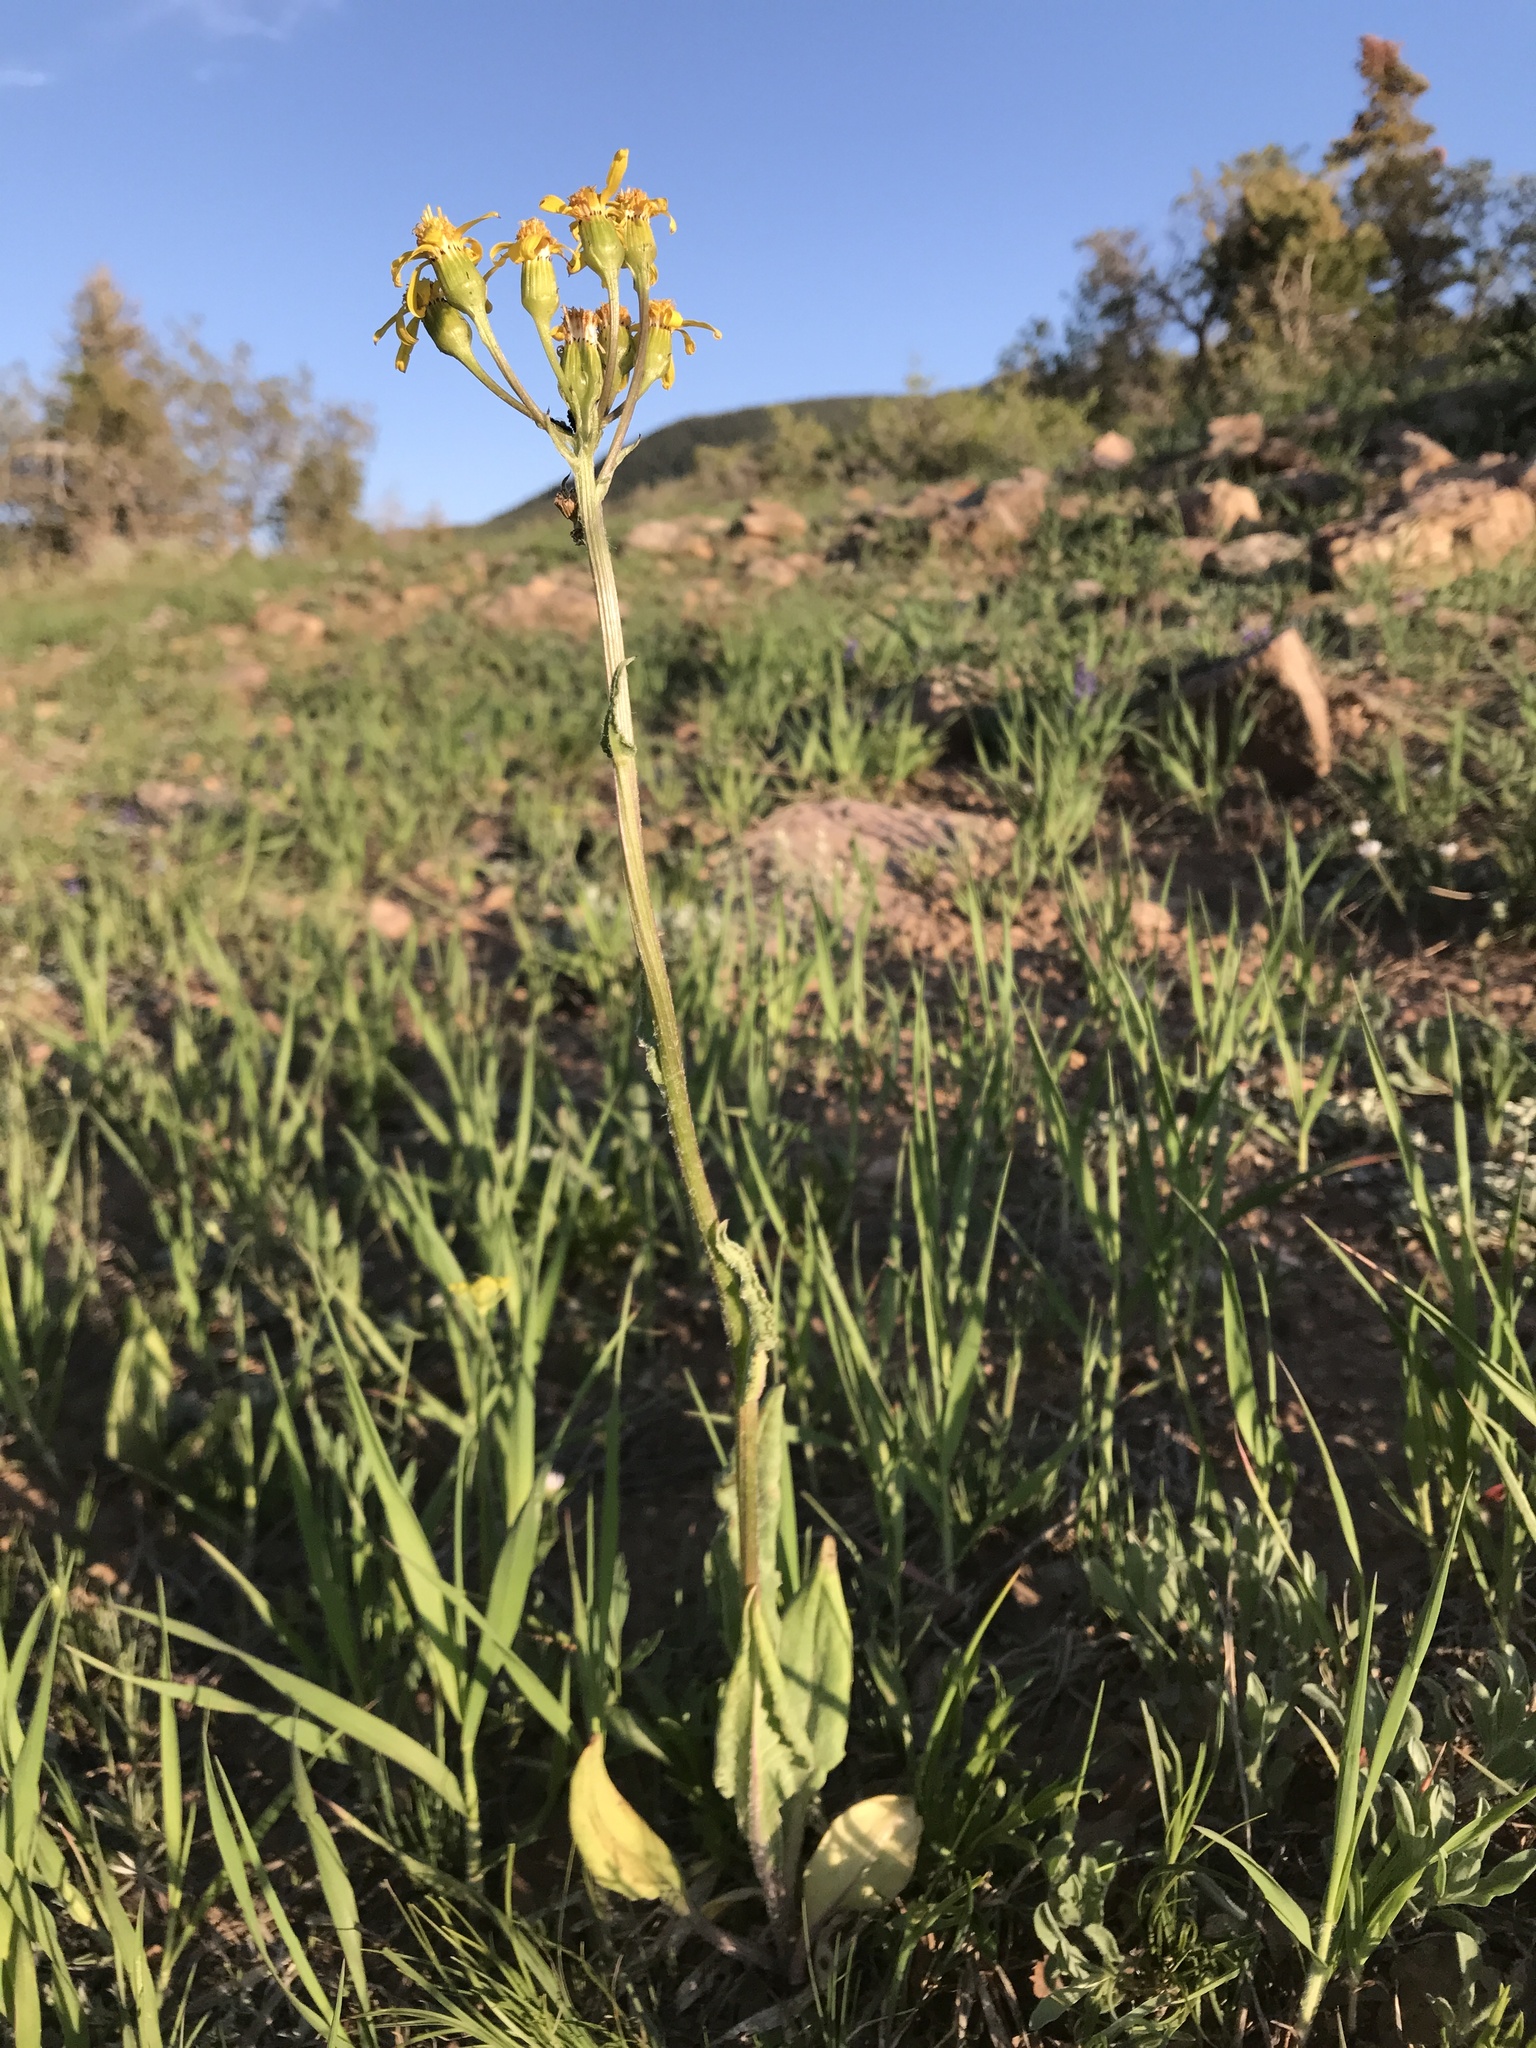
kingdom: Plantae
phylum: Tracheophyta
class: Magnoliopsida
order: Asterales
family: Asteraceae
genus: Senecio
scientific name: Senecio integerrimus
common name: Gaugeplant
